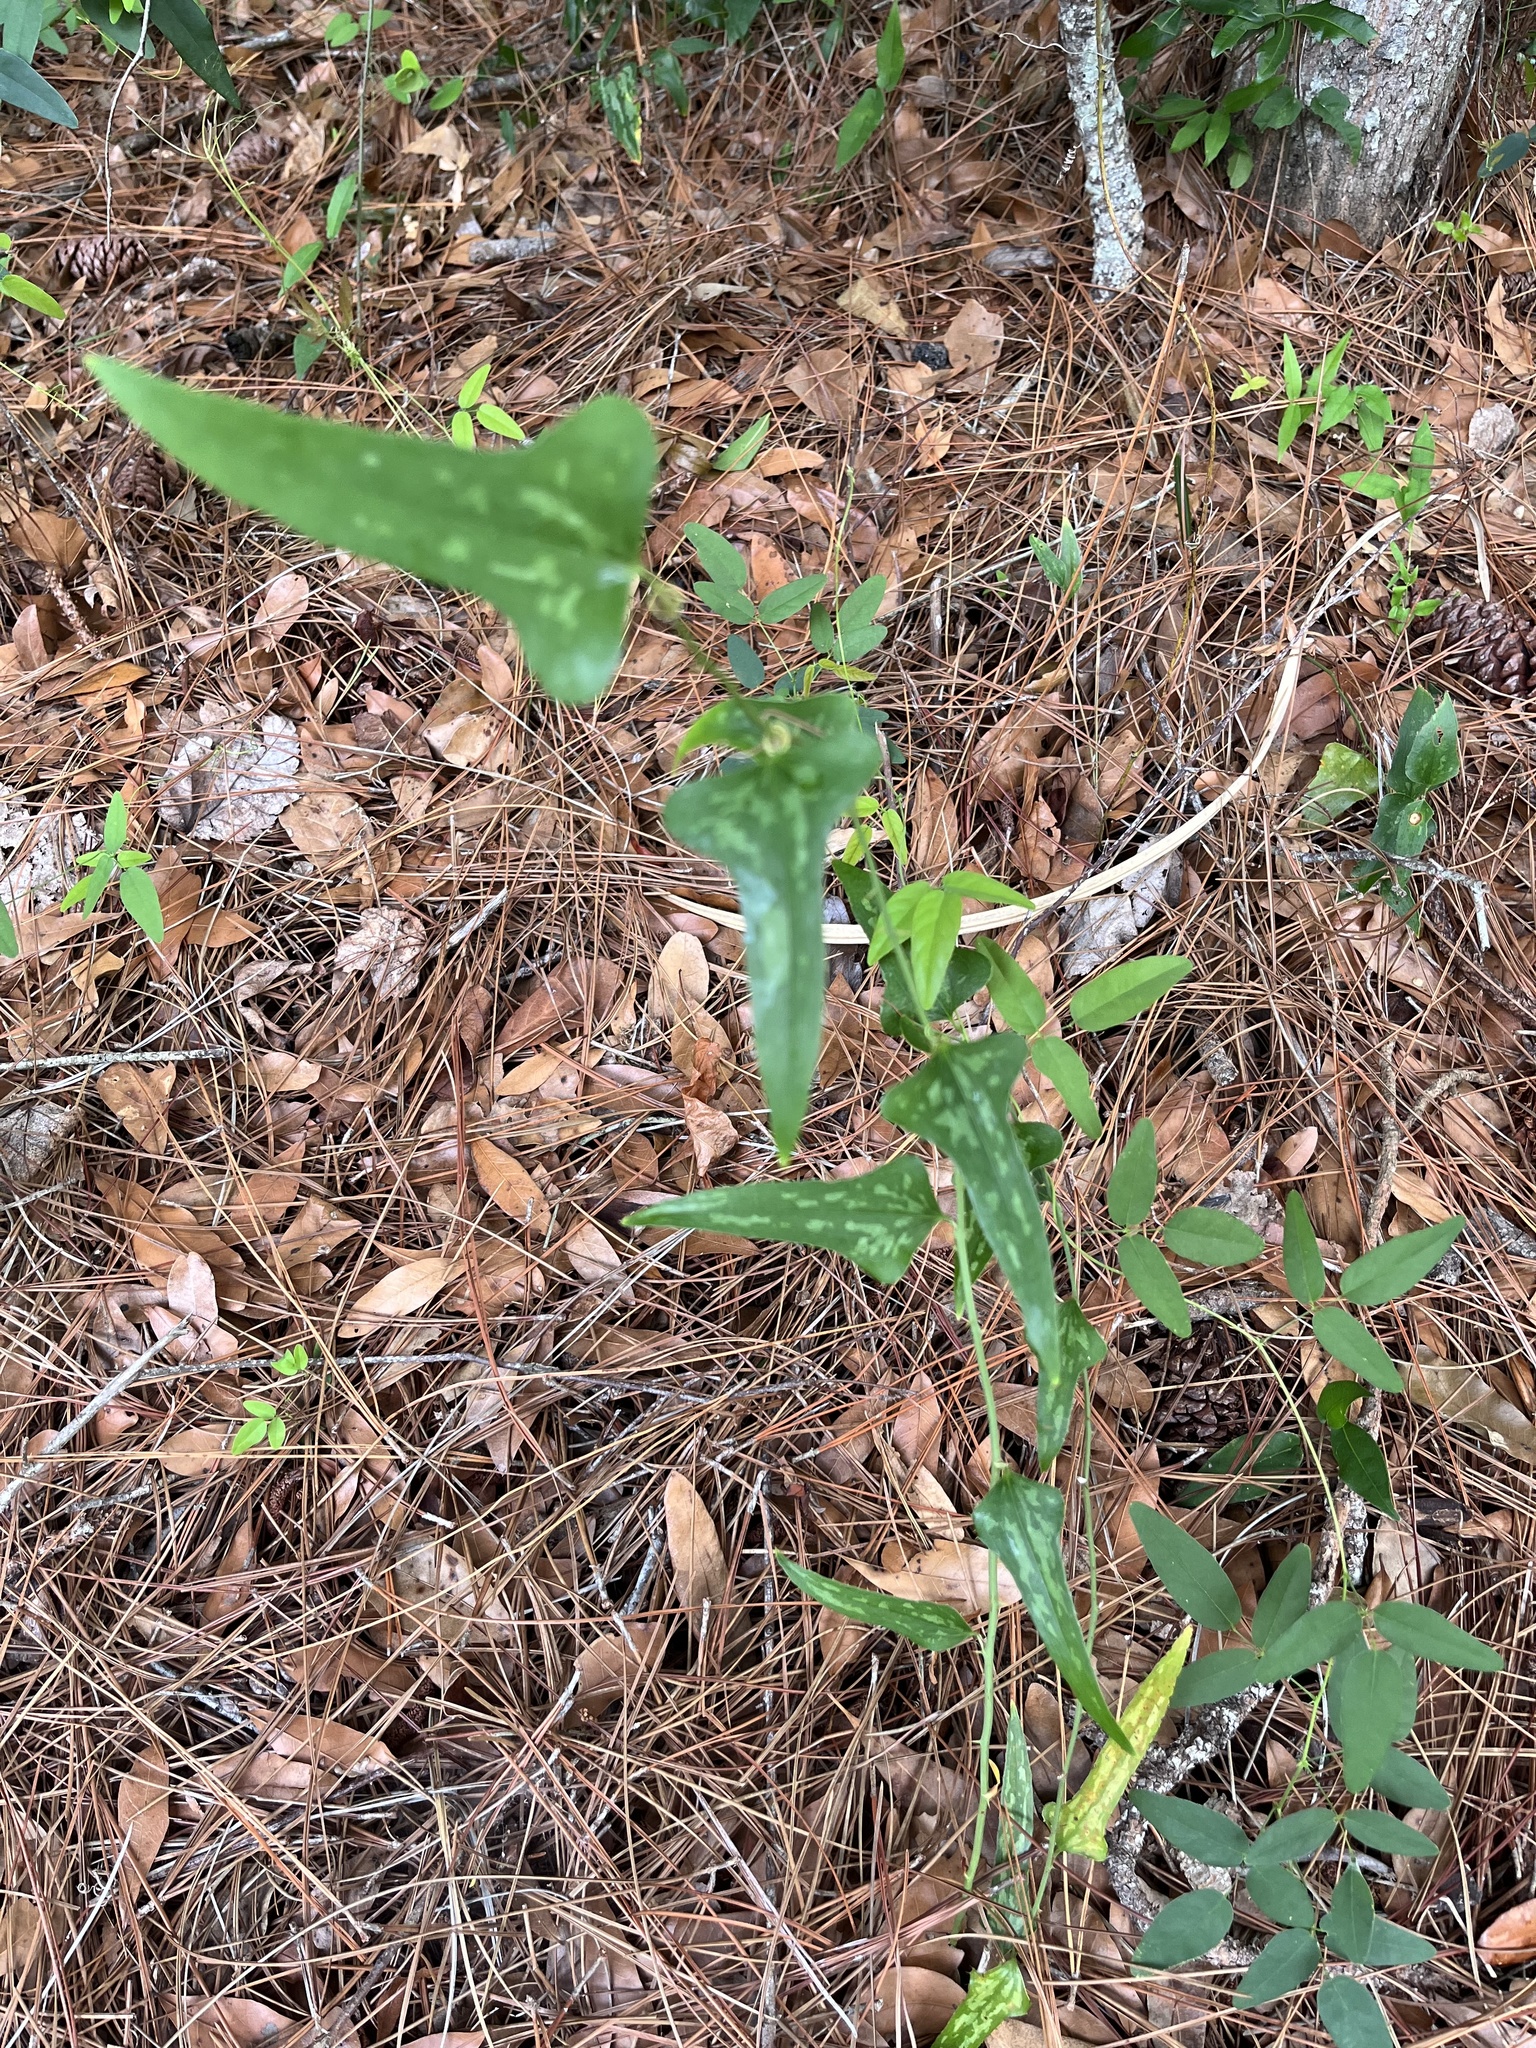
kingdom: Plantae
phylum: Tracheophyta
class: Liliopsida
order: Liliales
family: Smilacaceae
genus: Smilax
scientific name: Smilax bona-nox
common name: Catbrier
